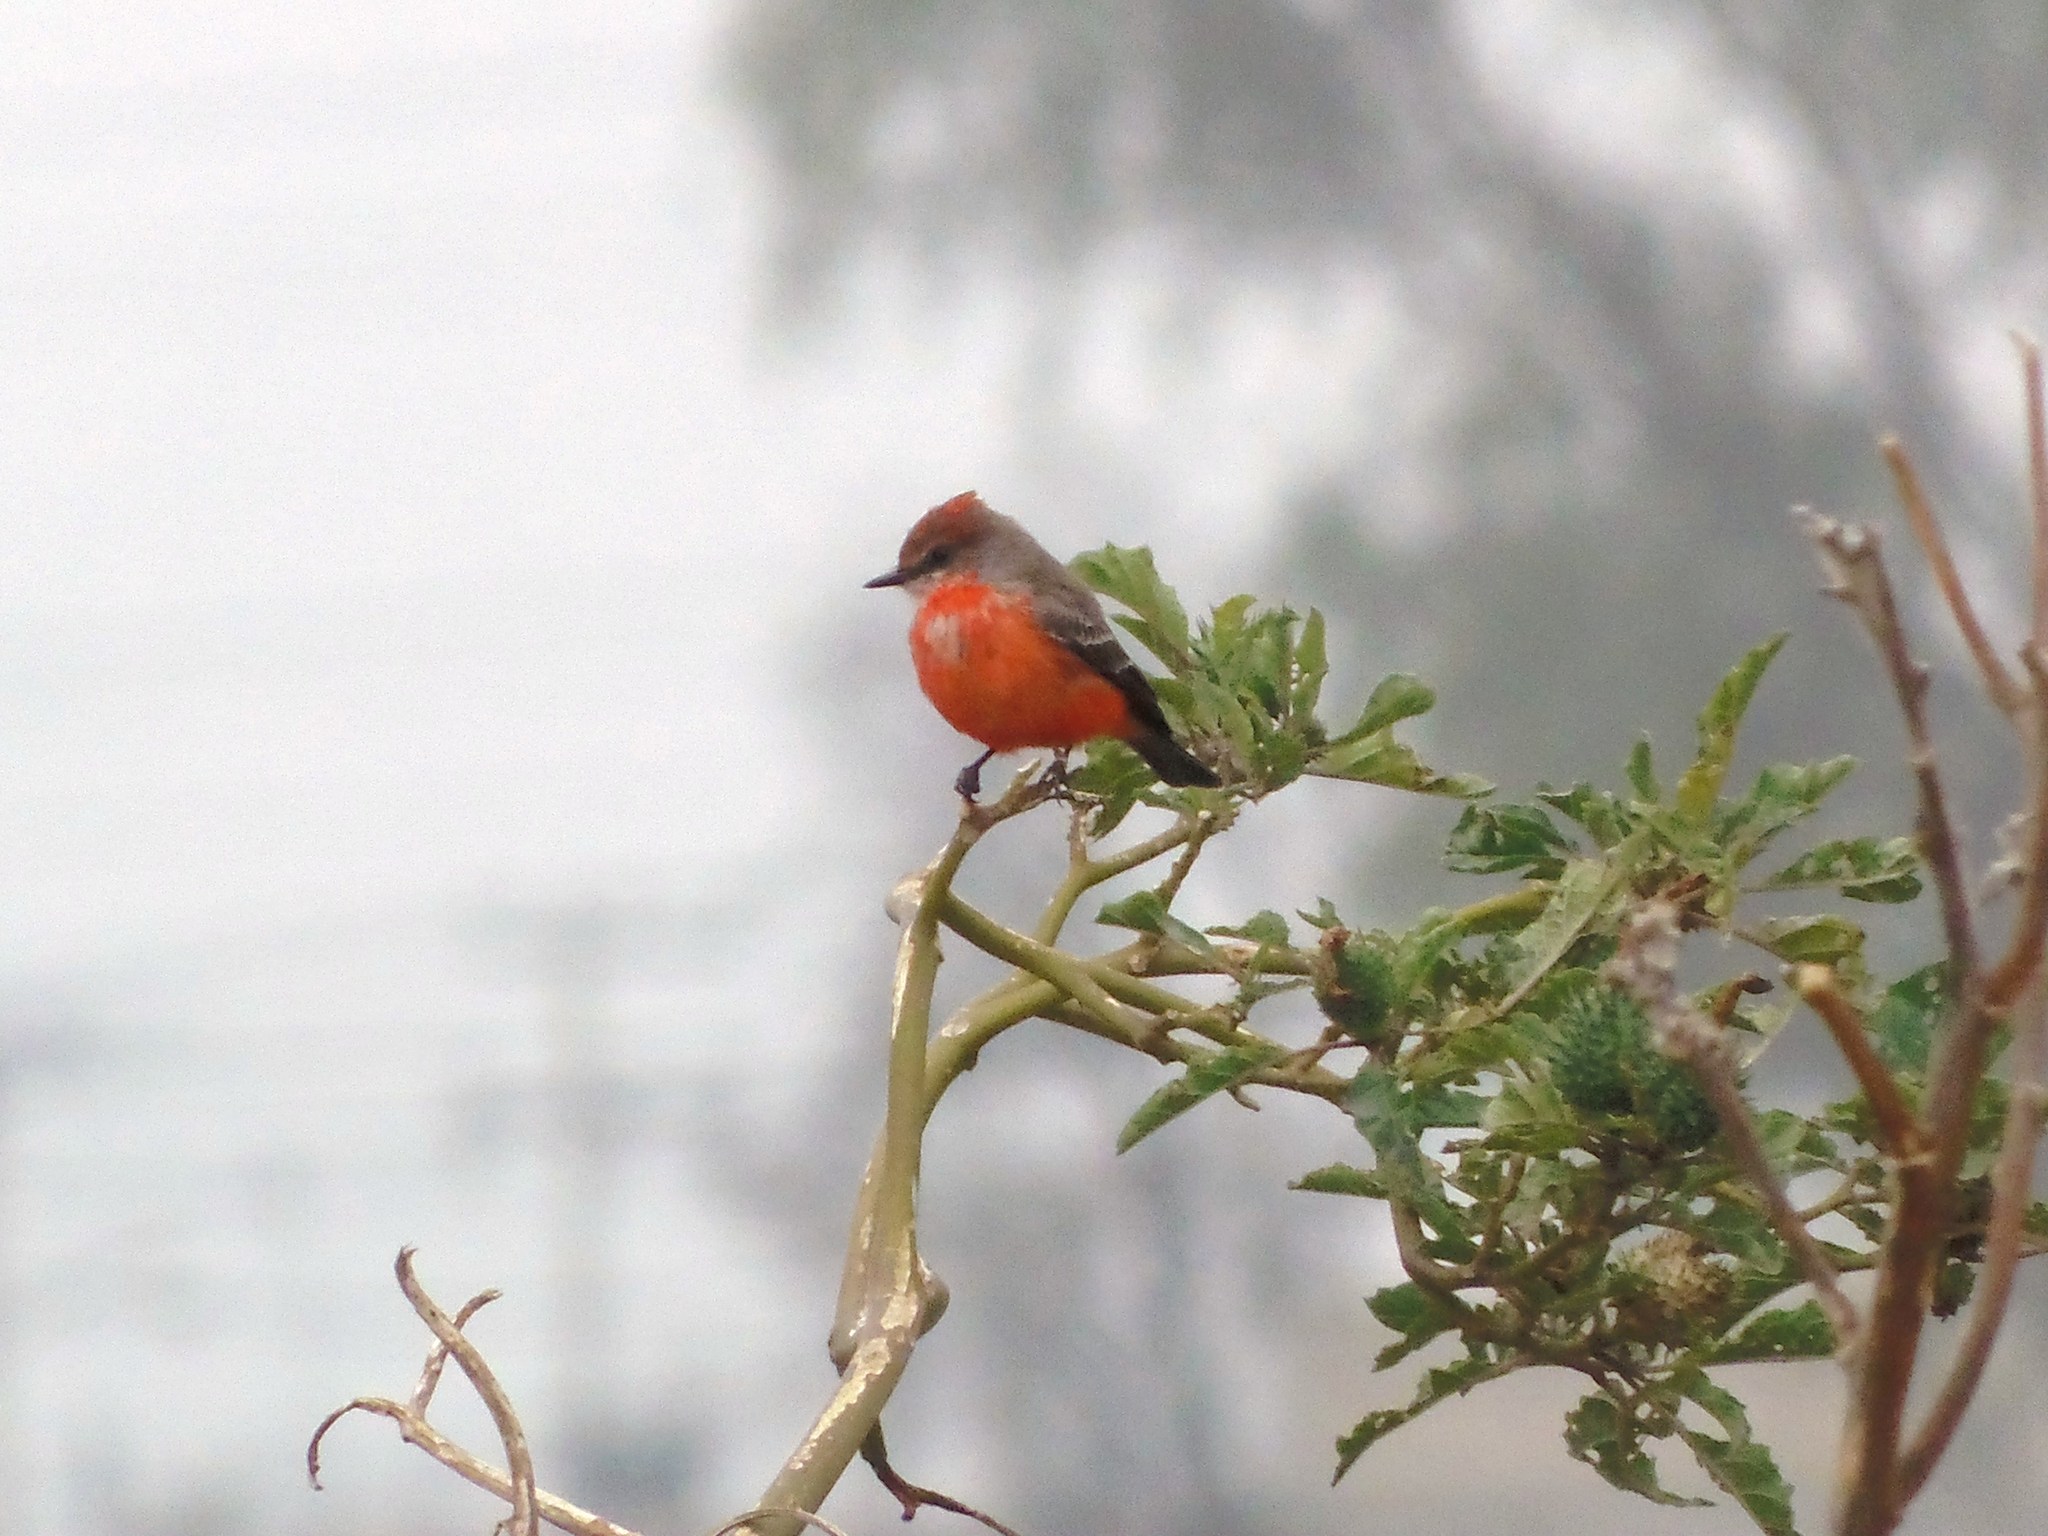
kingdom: Animalia
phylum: Chordata
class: Aves
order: Passeriformes
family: Tyrannidae
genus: Pyrocephalus
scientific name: Pyrocephalus rubinus
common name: Vermilion flycatcher
